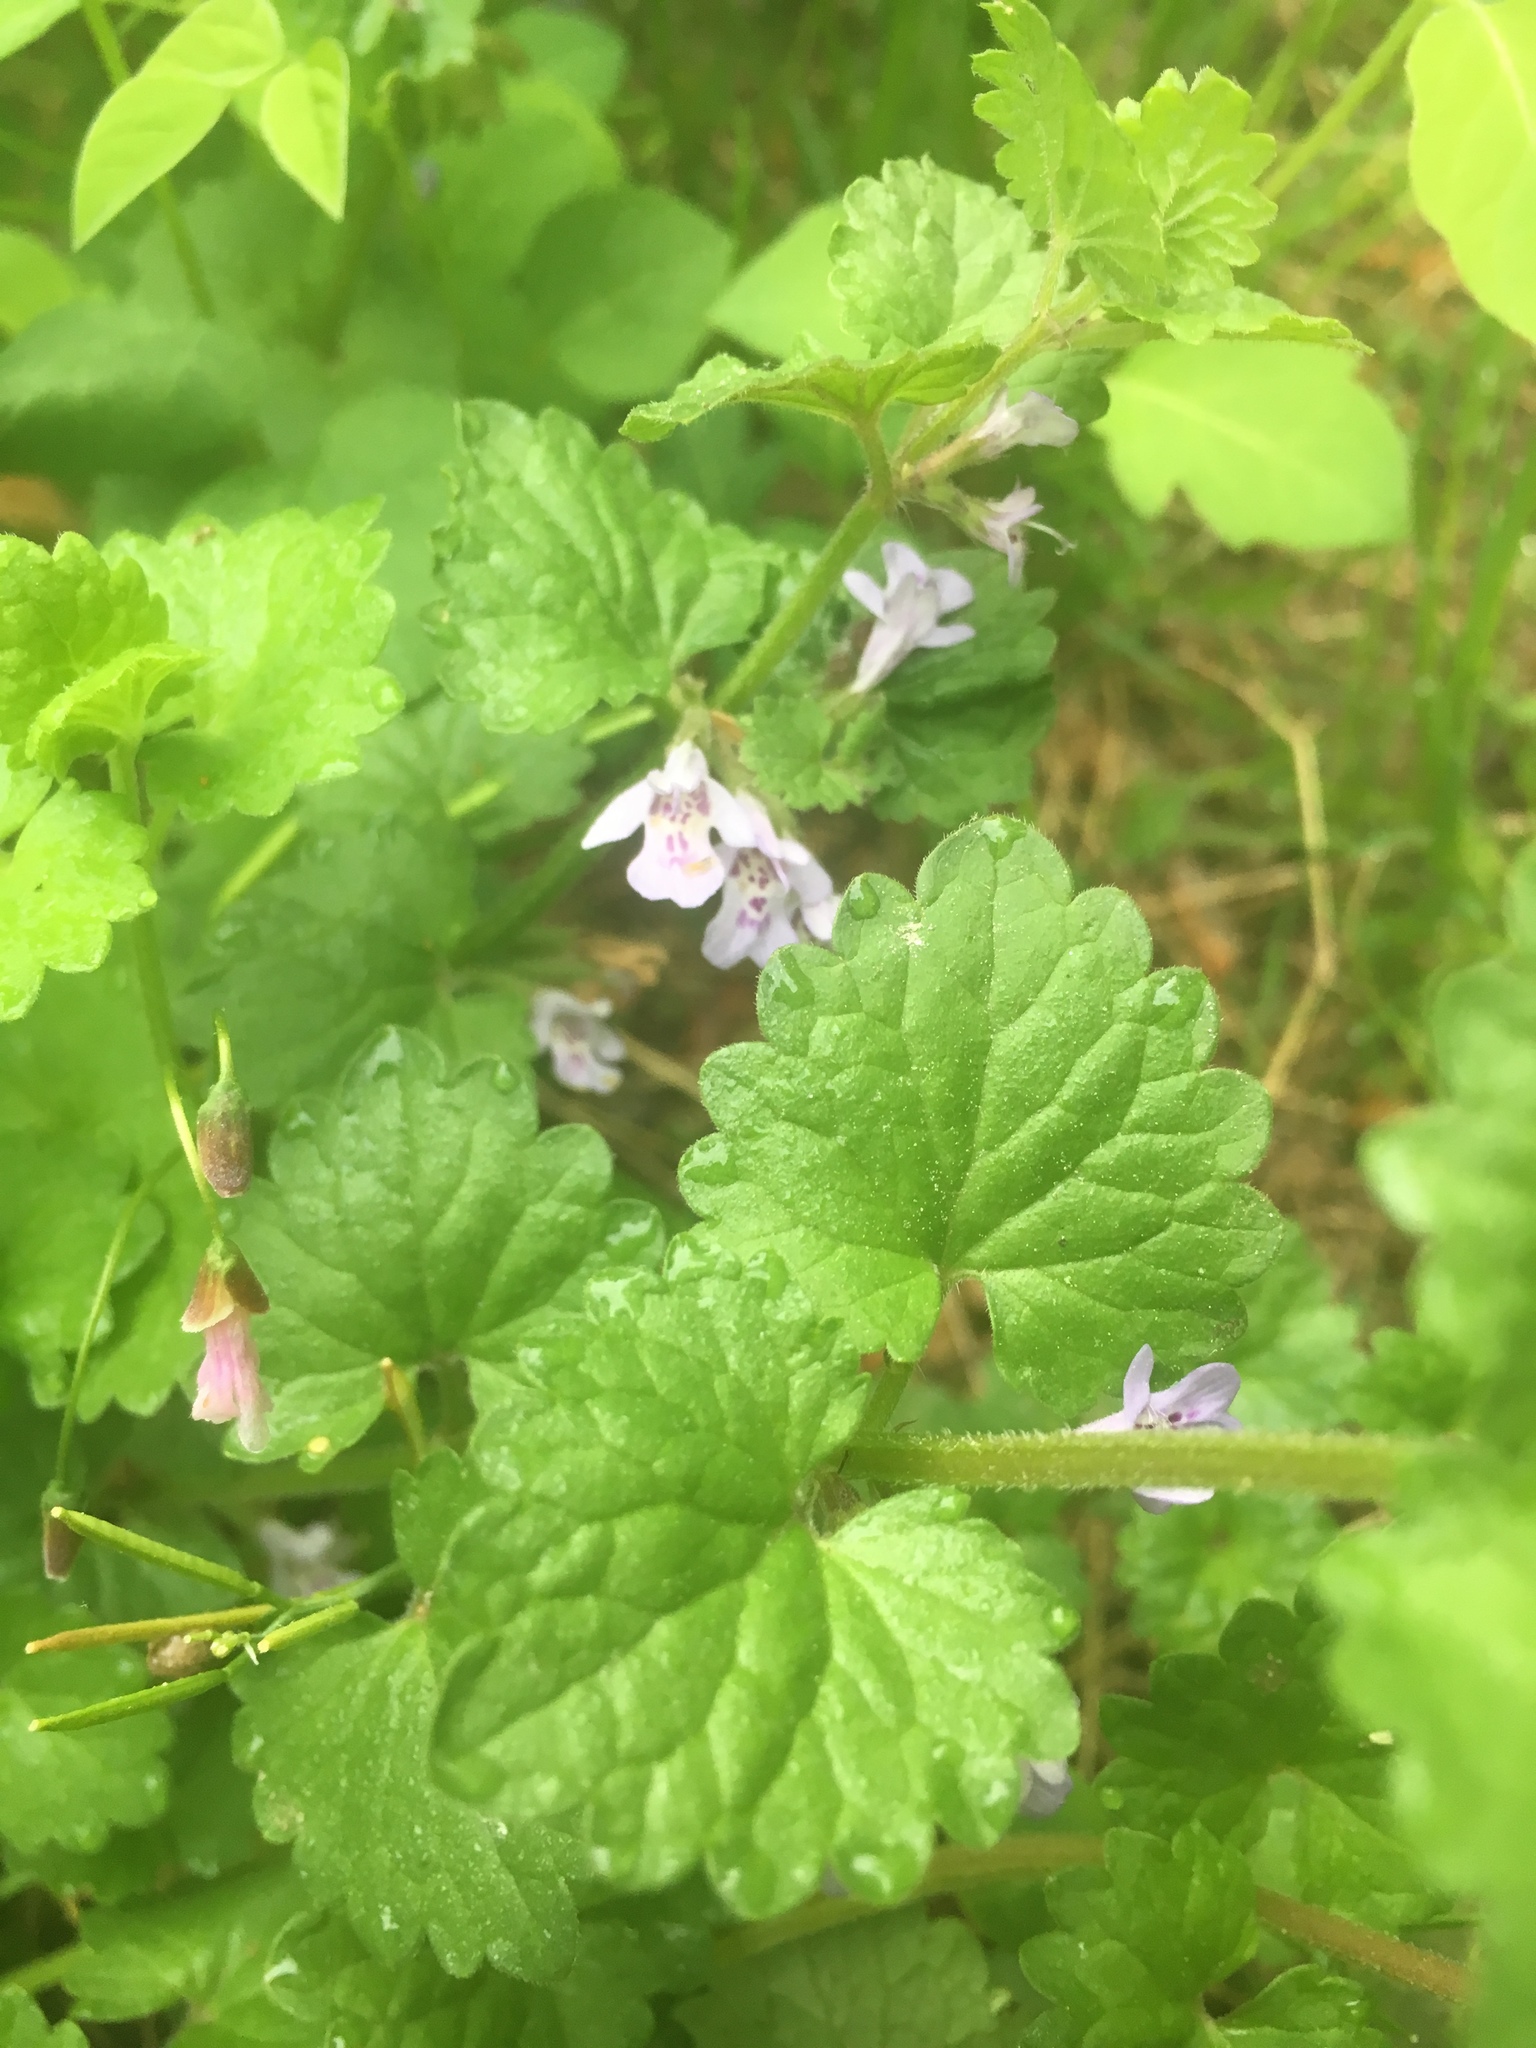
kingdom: Plantae
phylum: Tracheophyta
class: Magnoliopsida
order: Lamiales
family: Lamiaceae
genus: Glechoma
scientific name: Glechoma hederacea
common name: Ground ivy
